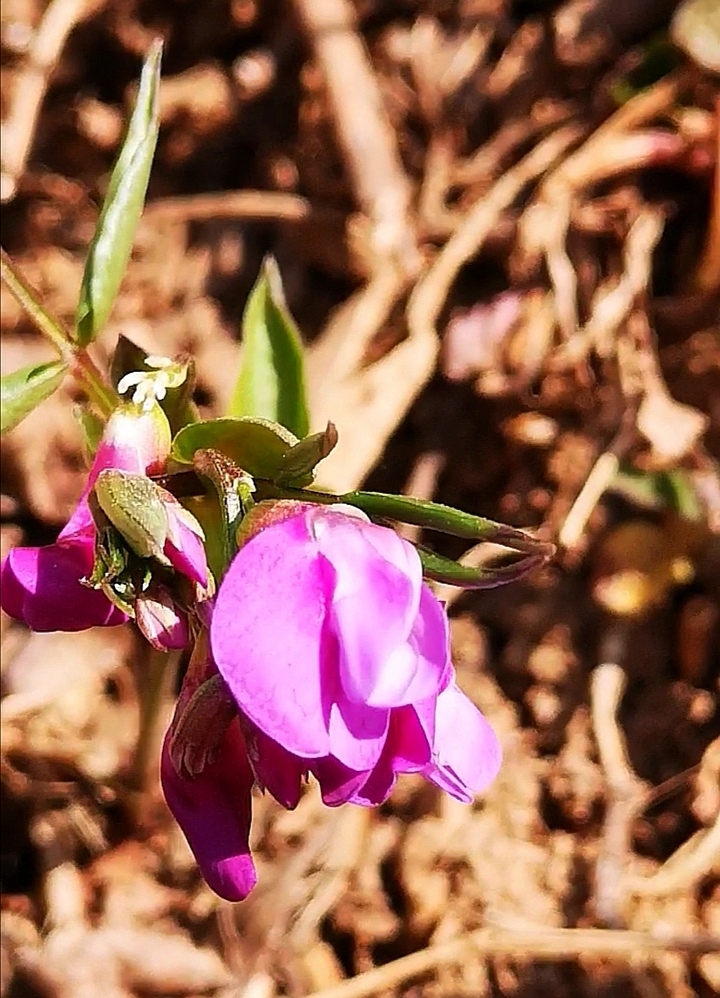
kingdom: Plantae
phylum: Tracheophyta
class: Magnoliopsida
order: Fabales
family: Fabaceae
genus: Lathyrus
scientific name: Lathyrus vernus
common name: Spring pea
